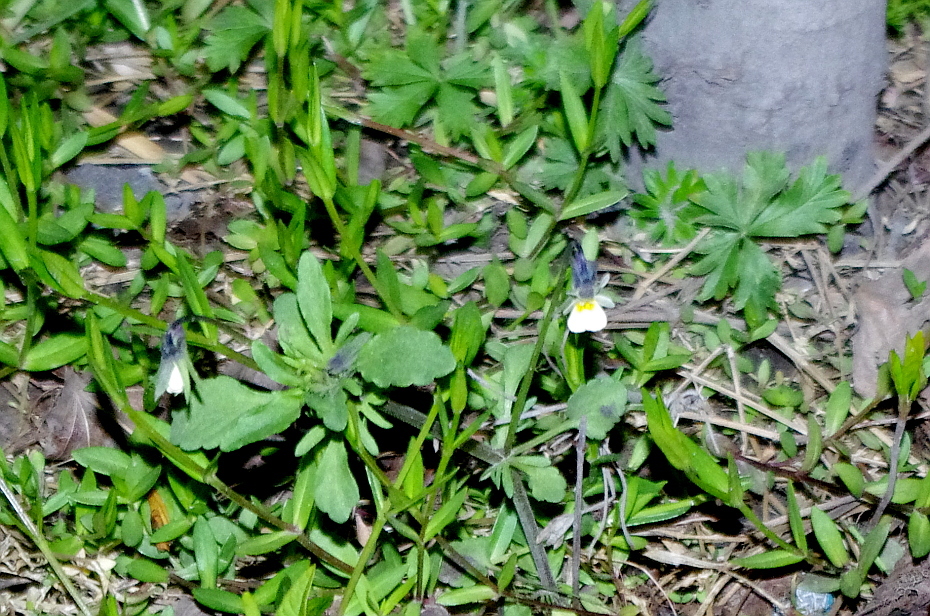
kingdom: Plantae
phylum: Tracheophyta
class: Magnoliopsida
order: Malpighiales
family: Violaceae
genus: Viola
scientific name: Viola arvensis
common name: Field pansy
